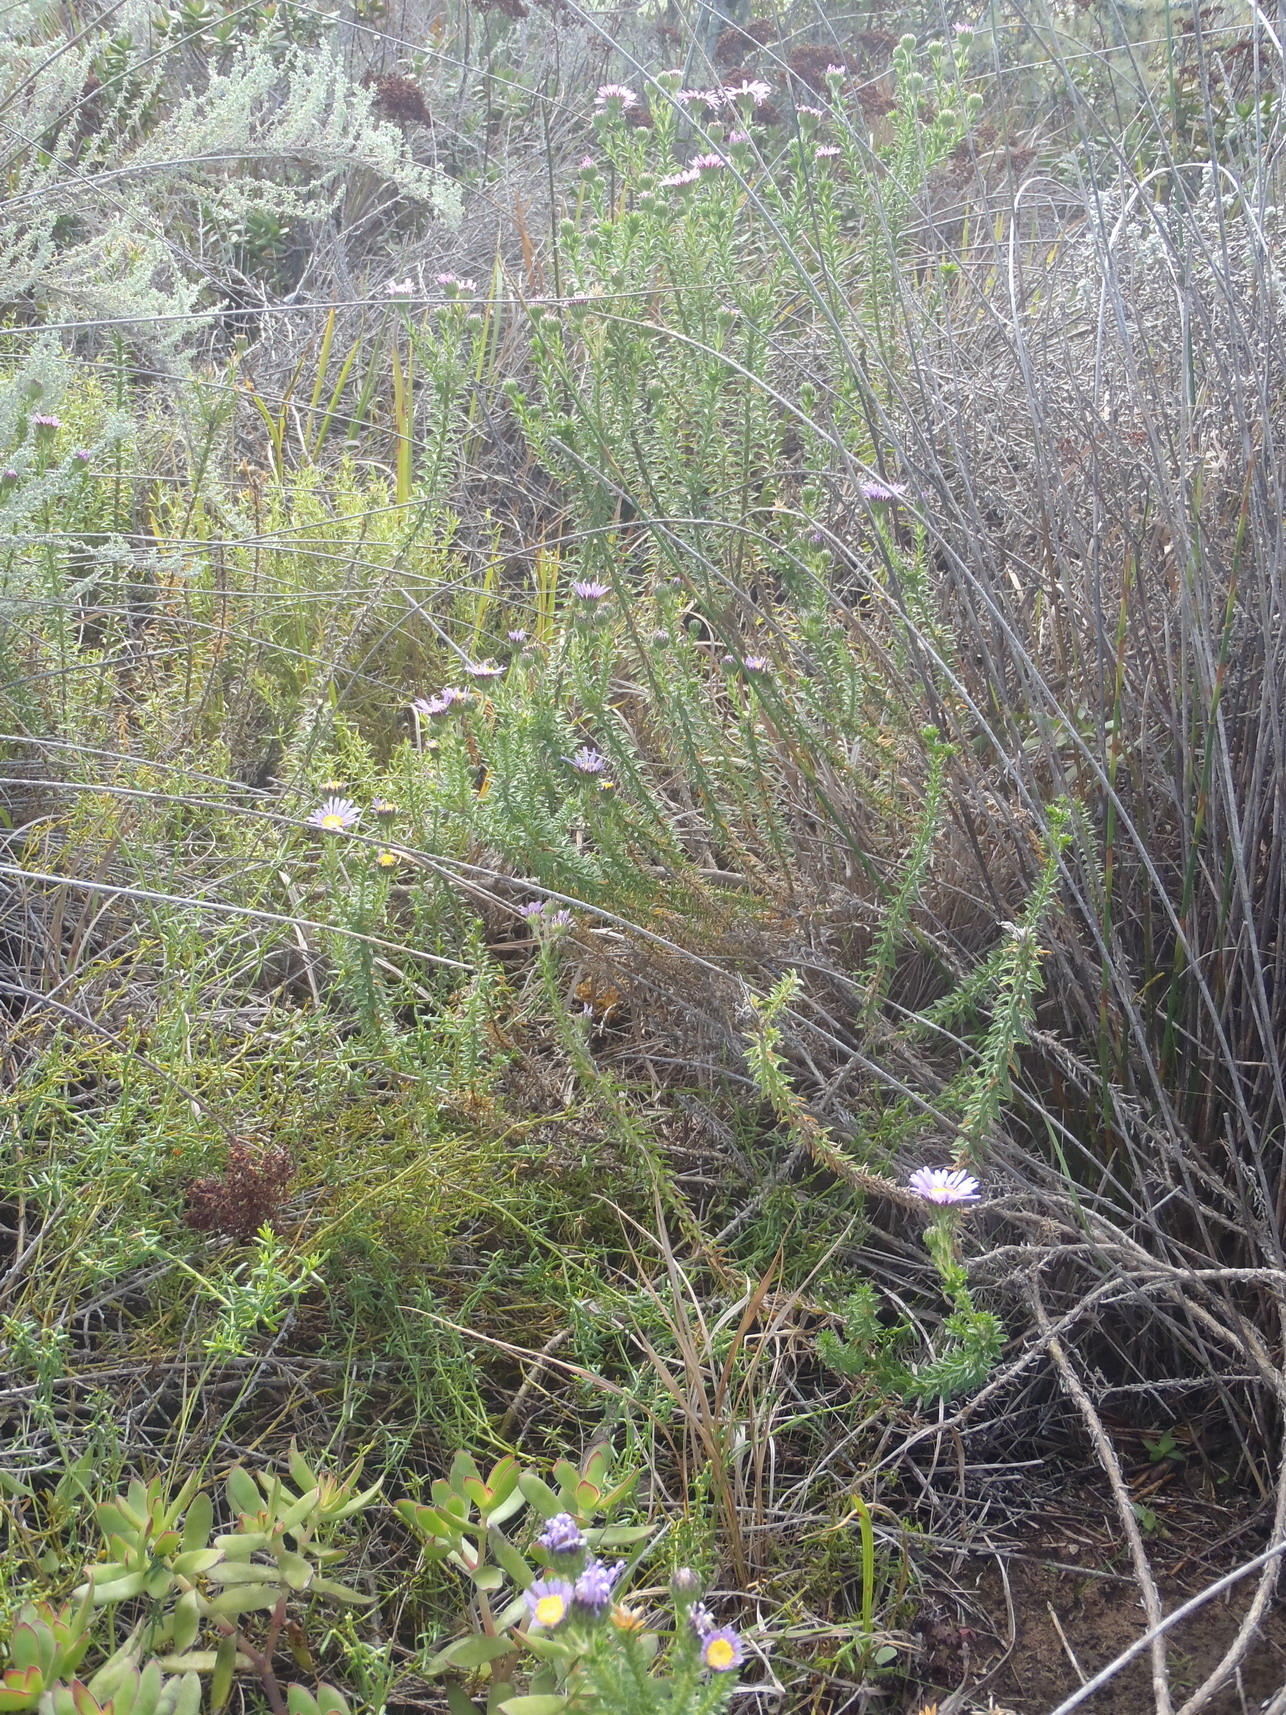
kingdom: Plantae
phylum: Tracheophyta
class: Magnoliopsida
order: Asterales
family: Asteraceae
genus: Felicia
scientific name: Felicia echinata
